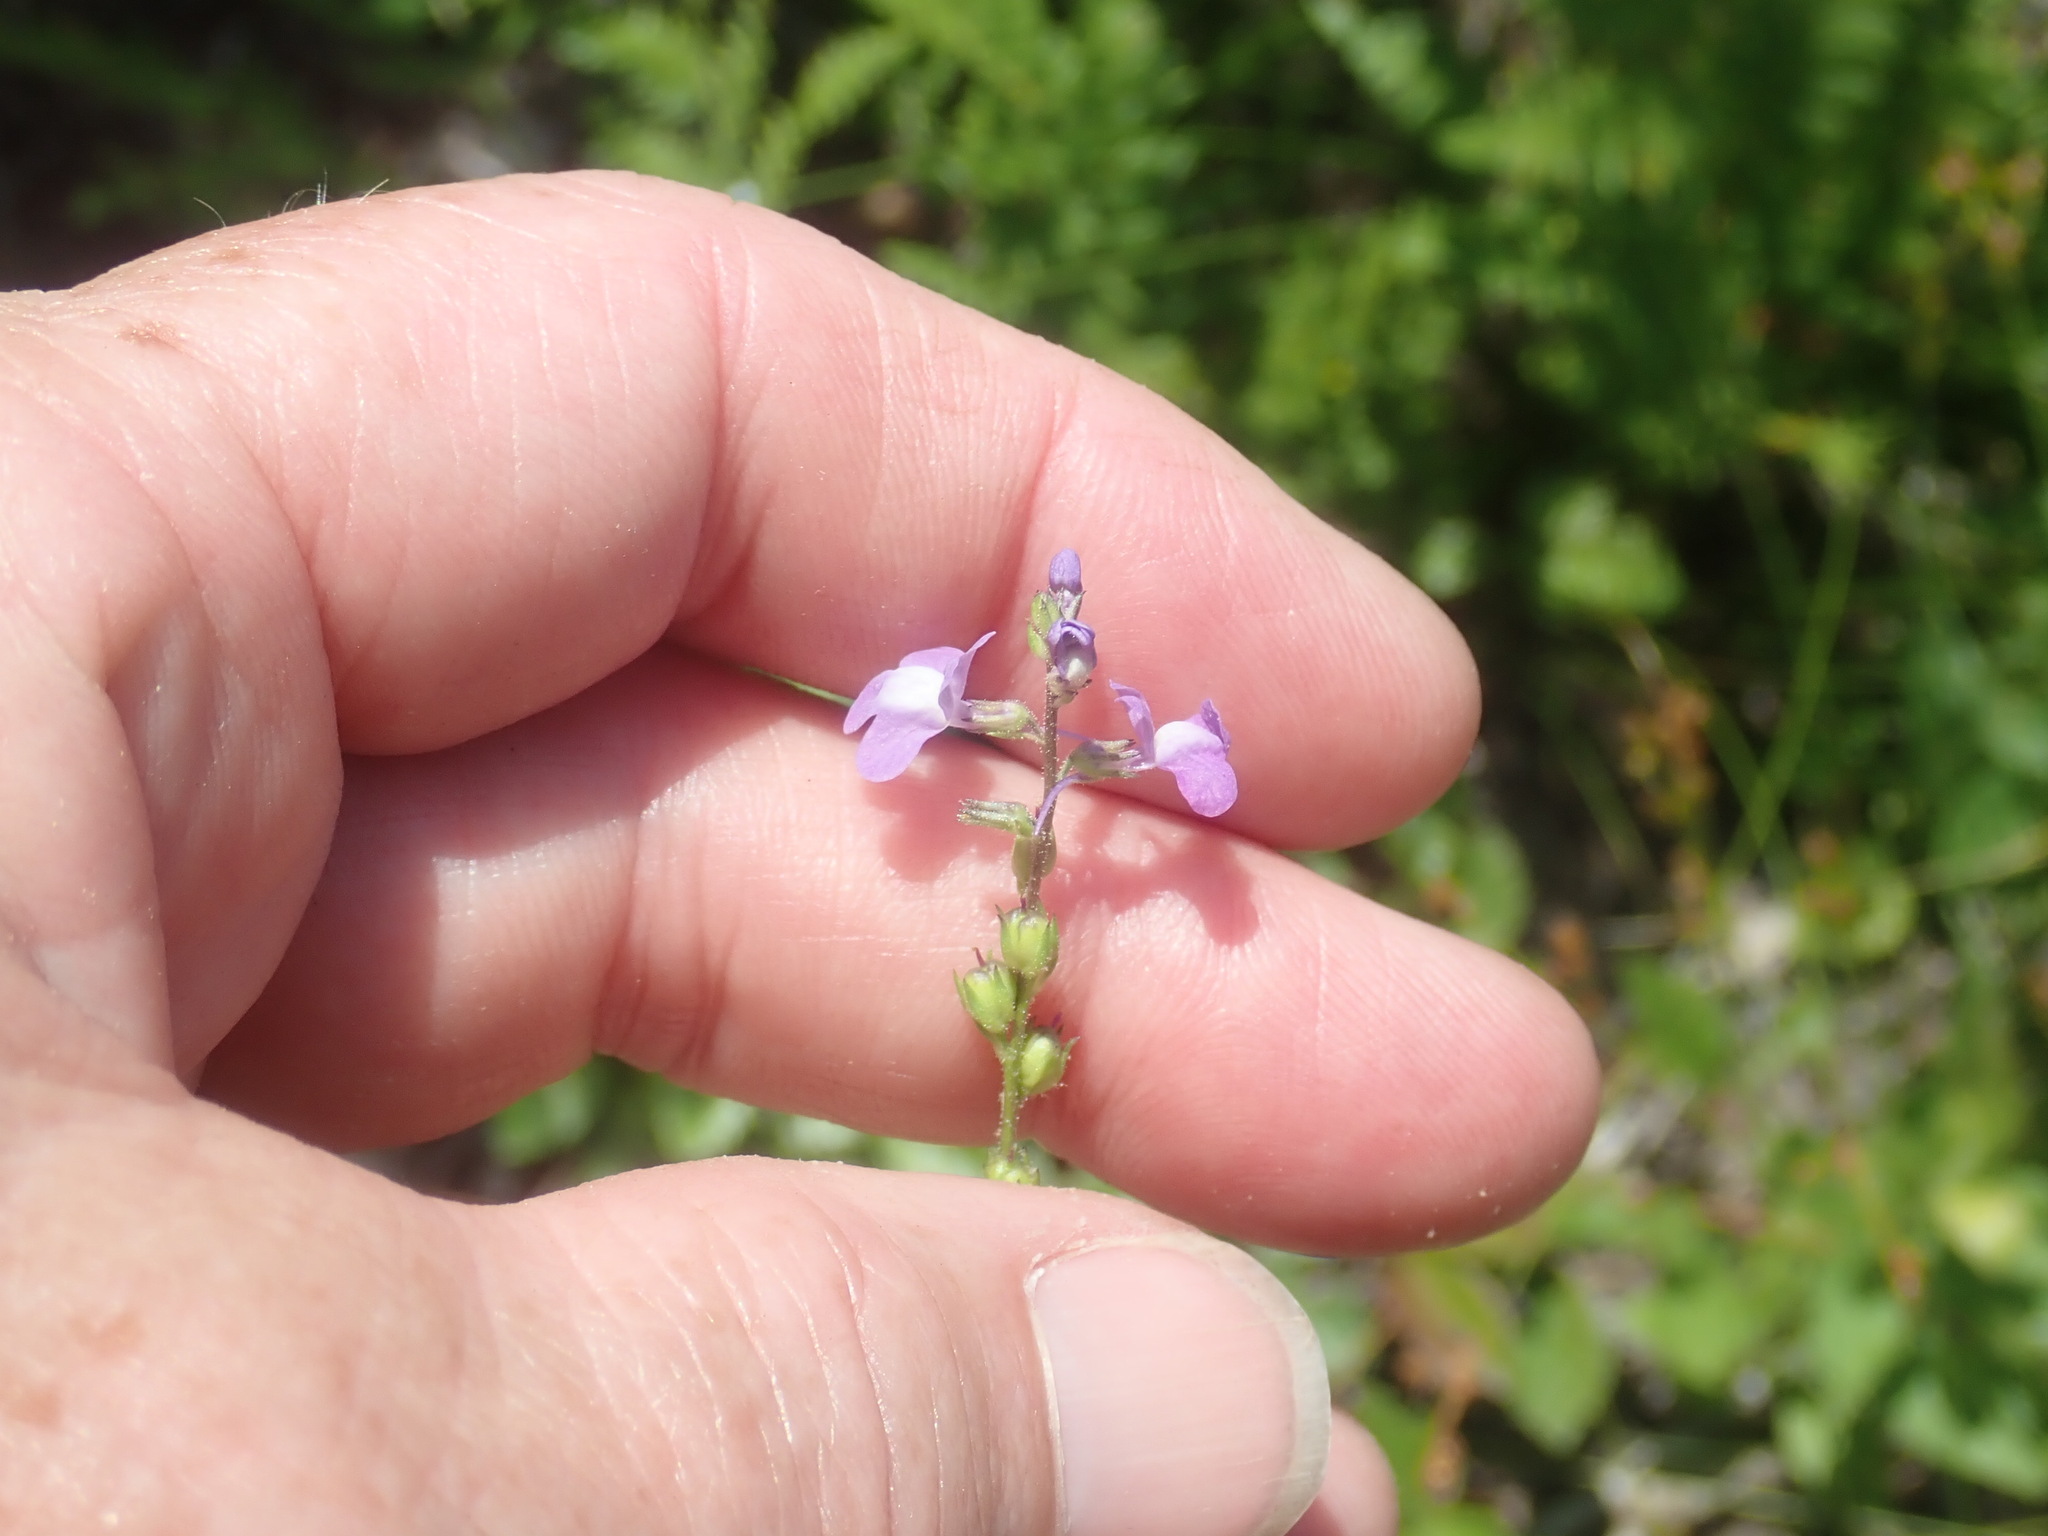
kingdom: Plantae
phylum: Tracheophyta
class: Magnoliopsida
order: Lamiales
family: Plantaginaceae
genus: Nuttallanthus
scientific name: Nuttallanthus canadensis
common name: Blue toadflax
